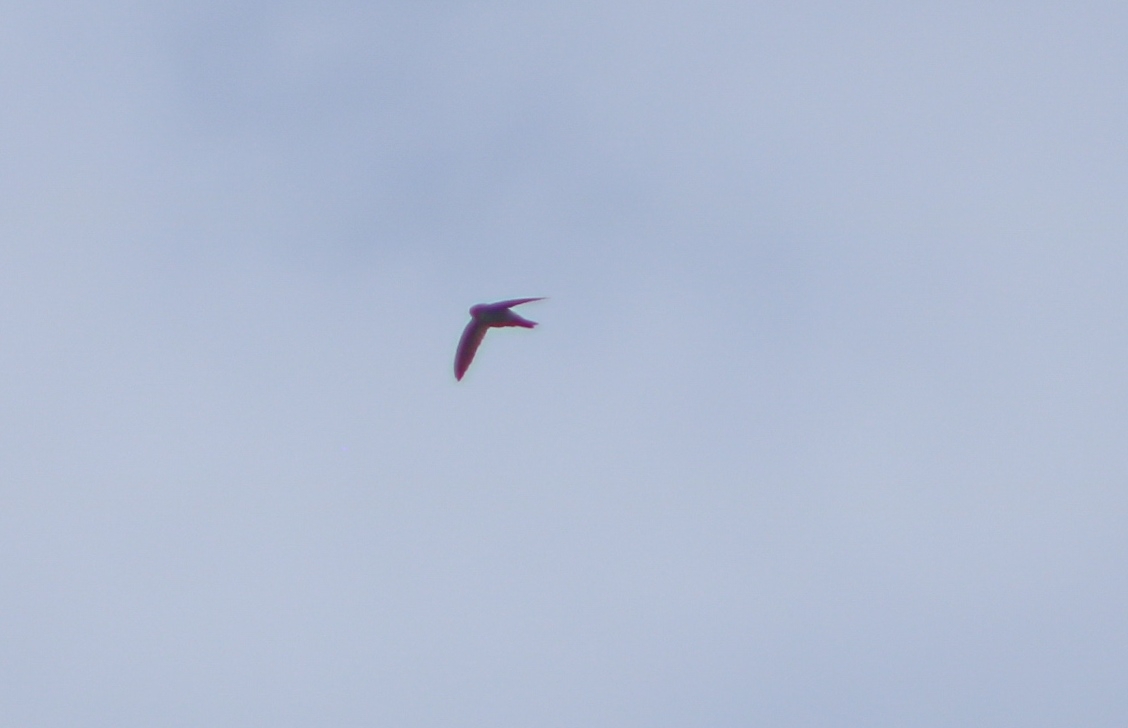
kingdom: Animalia
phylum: Chordata
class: Aves
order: Apodiformes
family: Apodidae
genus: Aerodramus
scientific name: Aerodramus terraereginae
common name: Australian swiftlet
